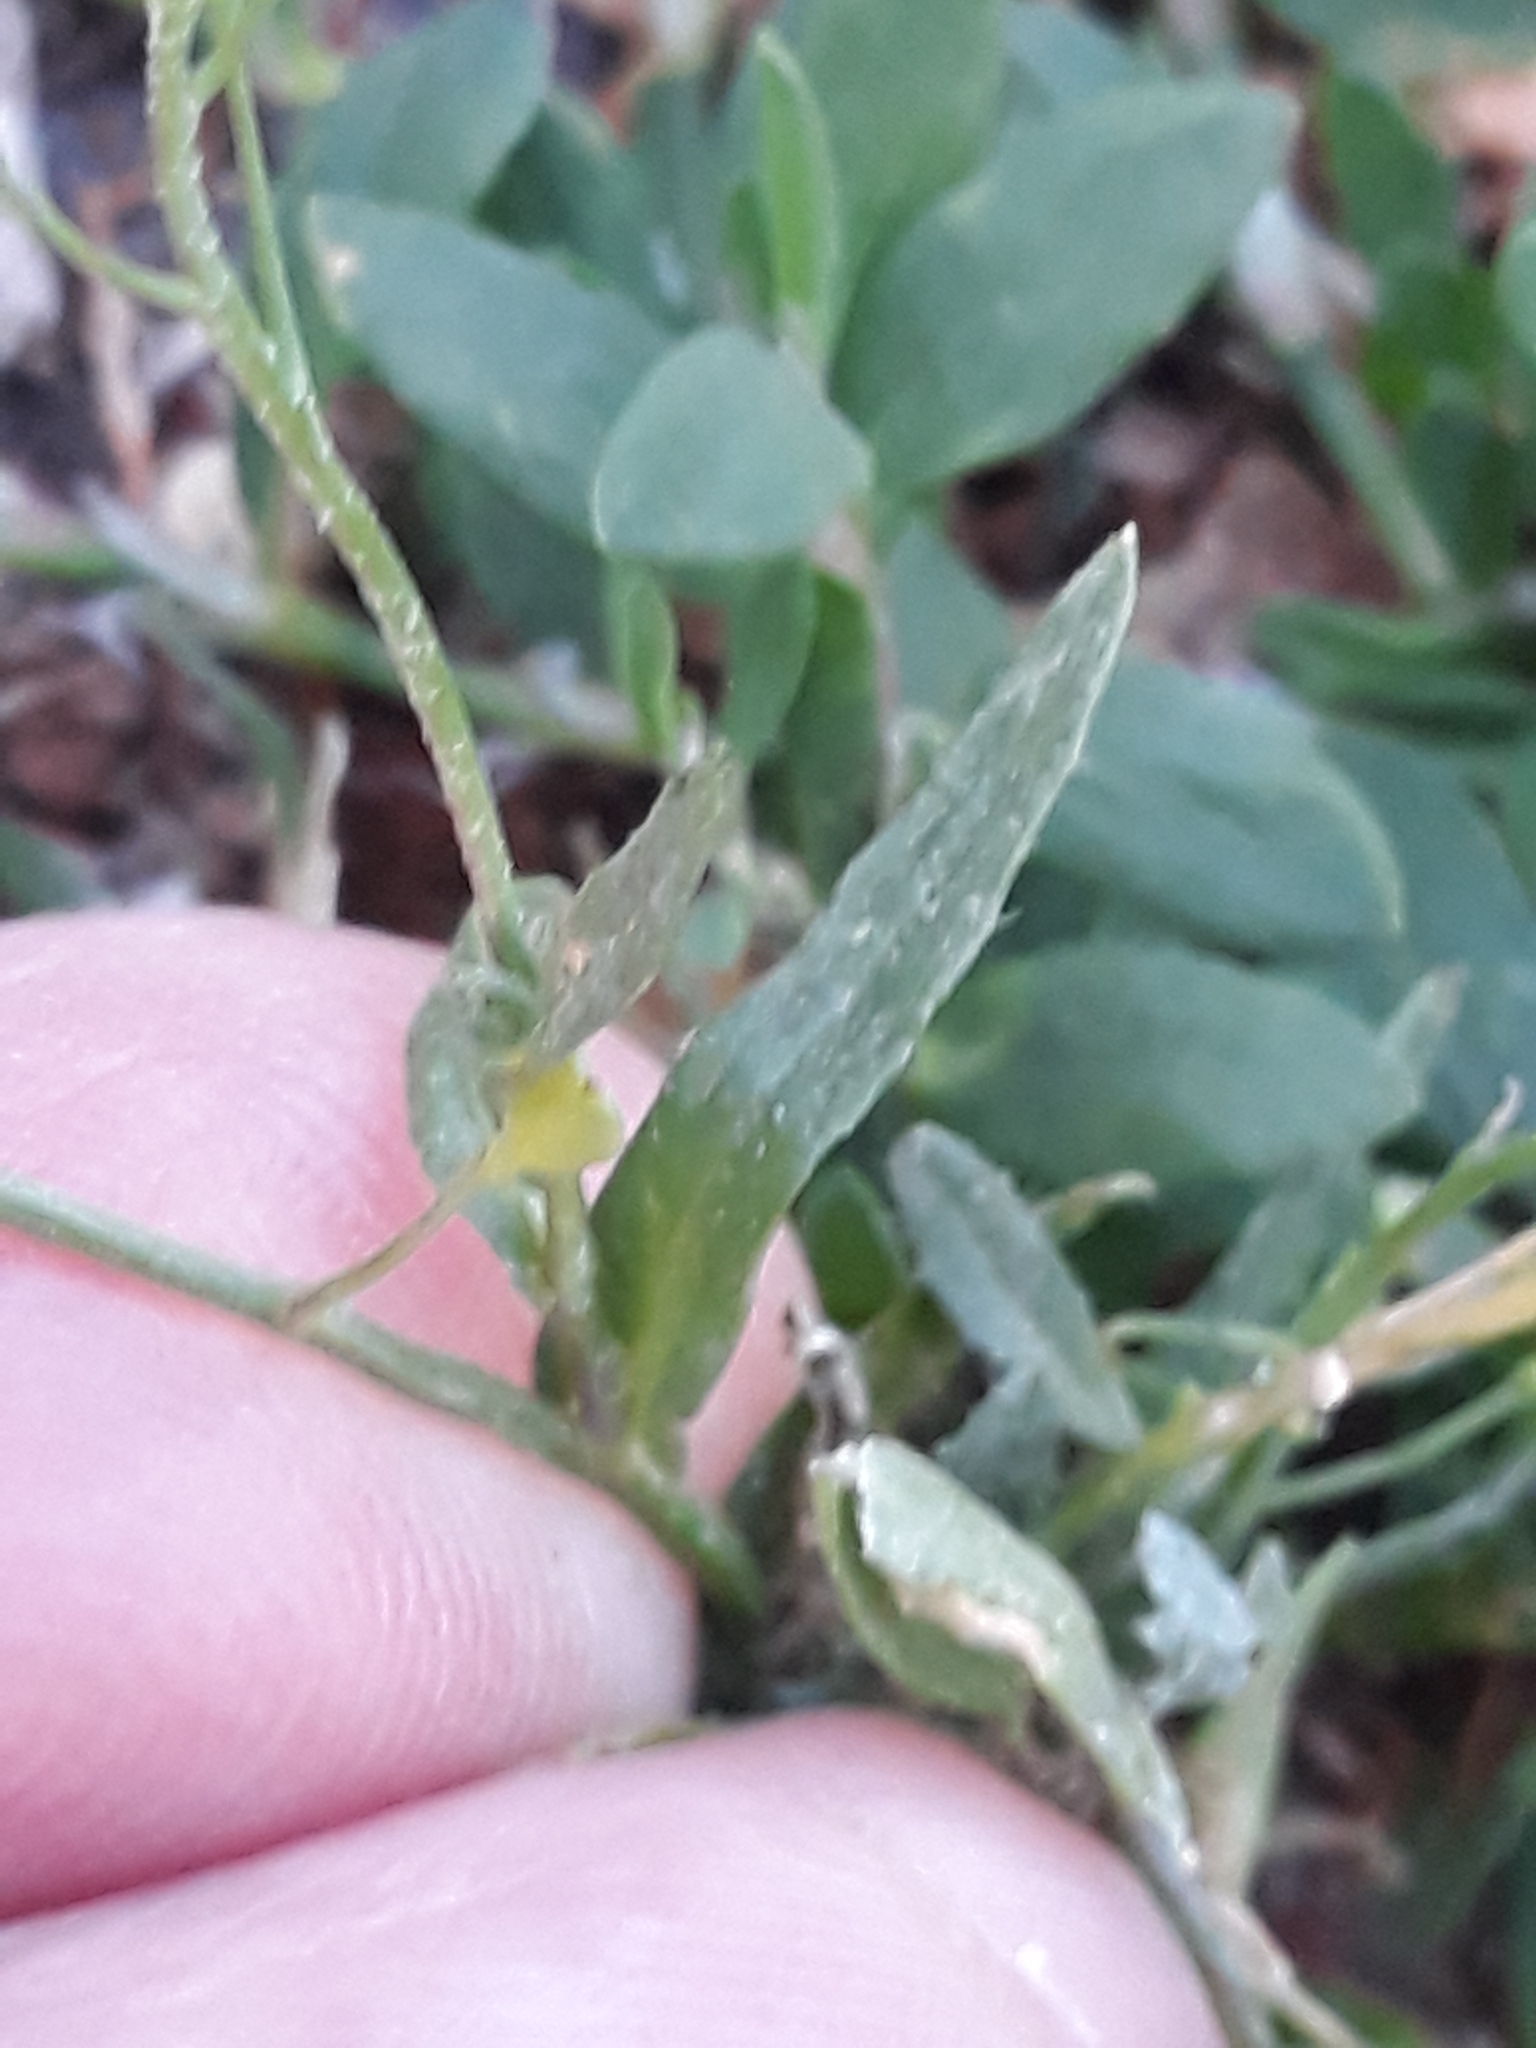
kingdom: Plantae
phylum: Tracheophyta
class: Magnoliopsida
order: Brassicales
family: Brassicaceae
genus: Capsella
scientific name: Capsella bursa-pastoris
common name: Shepherd's purse
